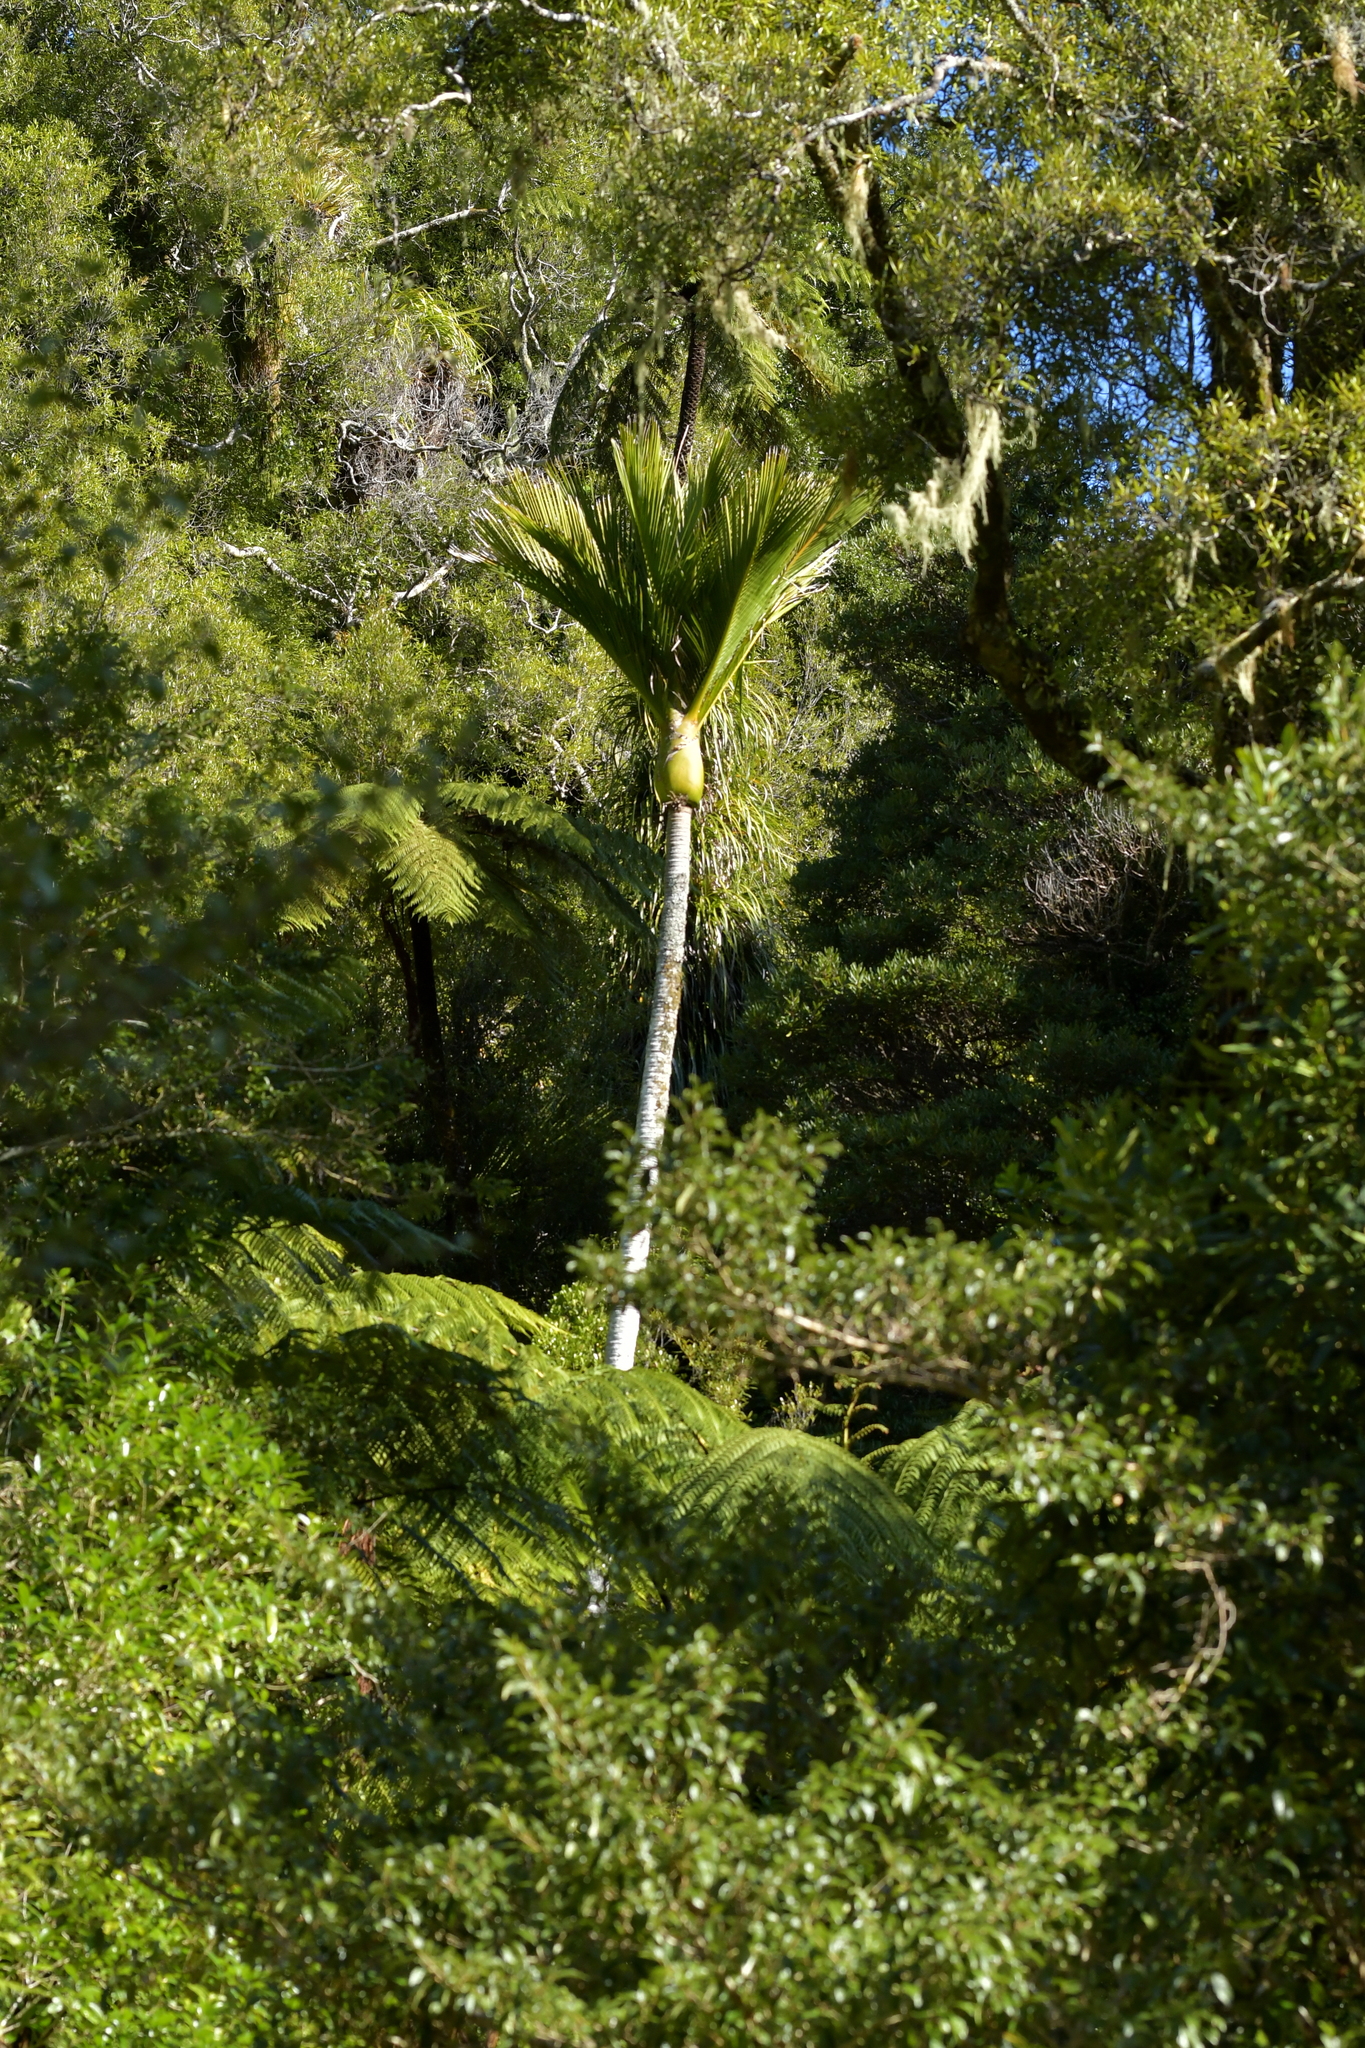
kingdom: Plantae
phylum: Tracheophyta
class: Liliopsida
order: Arecales
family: Arecaceae
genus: Rhopalostylis
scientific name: Rhopalostylis sapida
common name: Feather-duster palm
